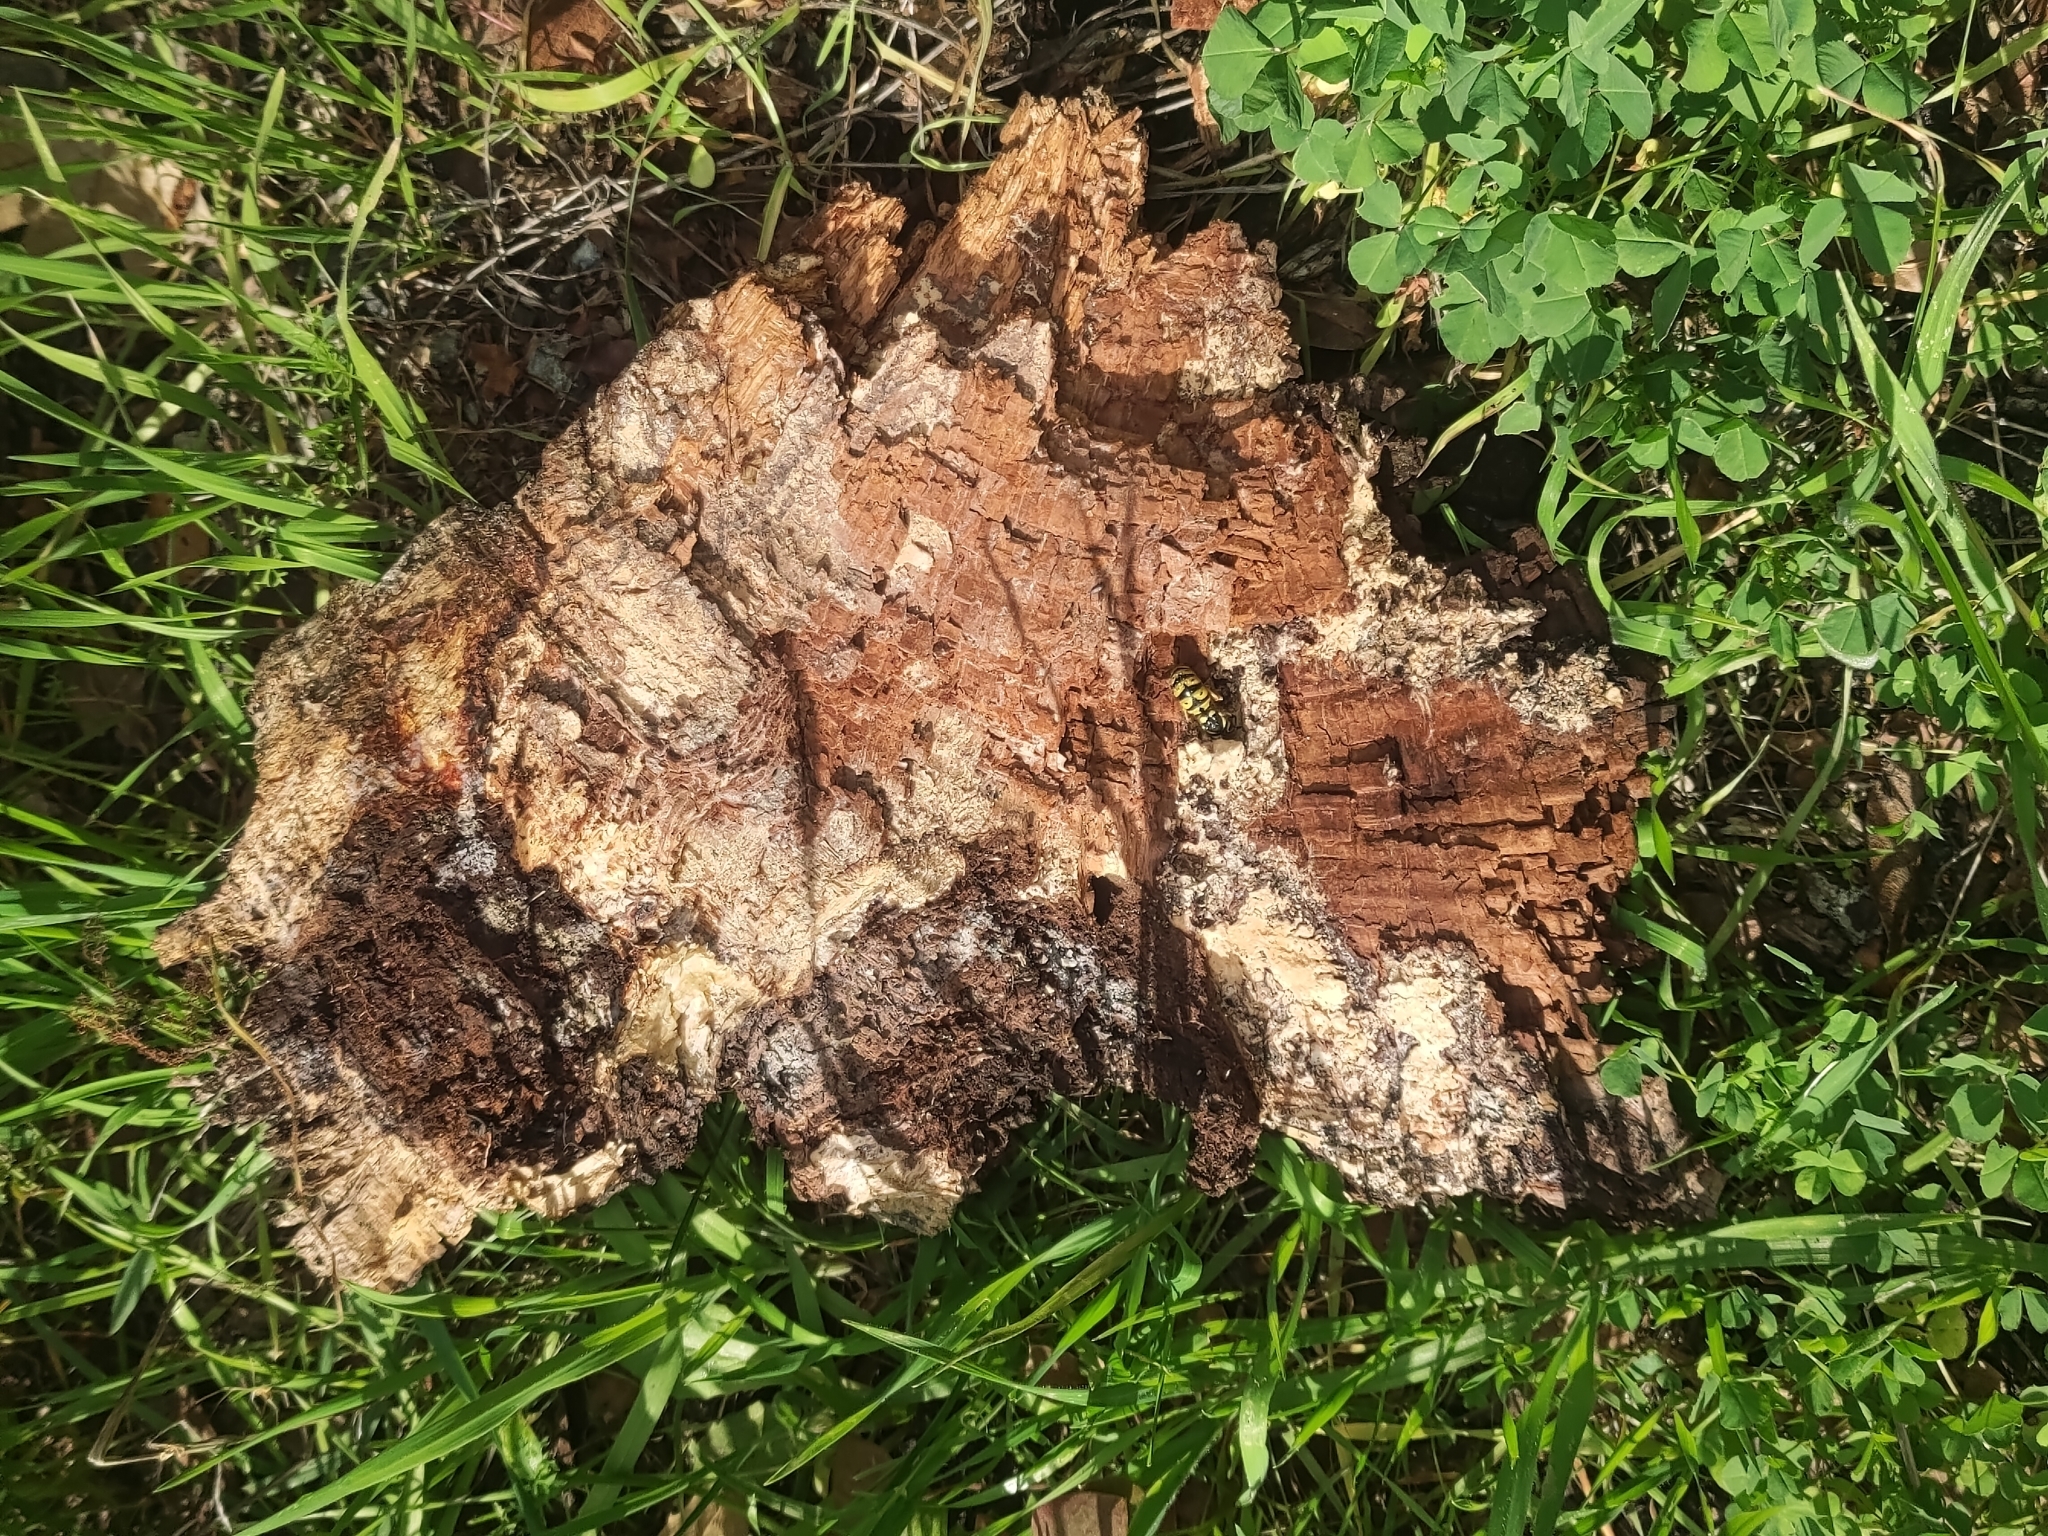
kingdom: Animalia
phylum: Arthropoda
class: Insecta
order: Hymenoptera
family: Vespidae
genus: Vespula
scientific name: Vespula pensylvanica
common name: Western yellowjacket
